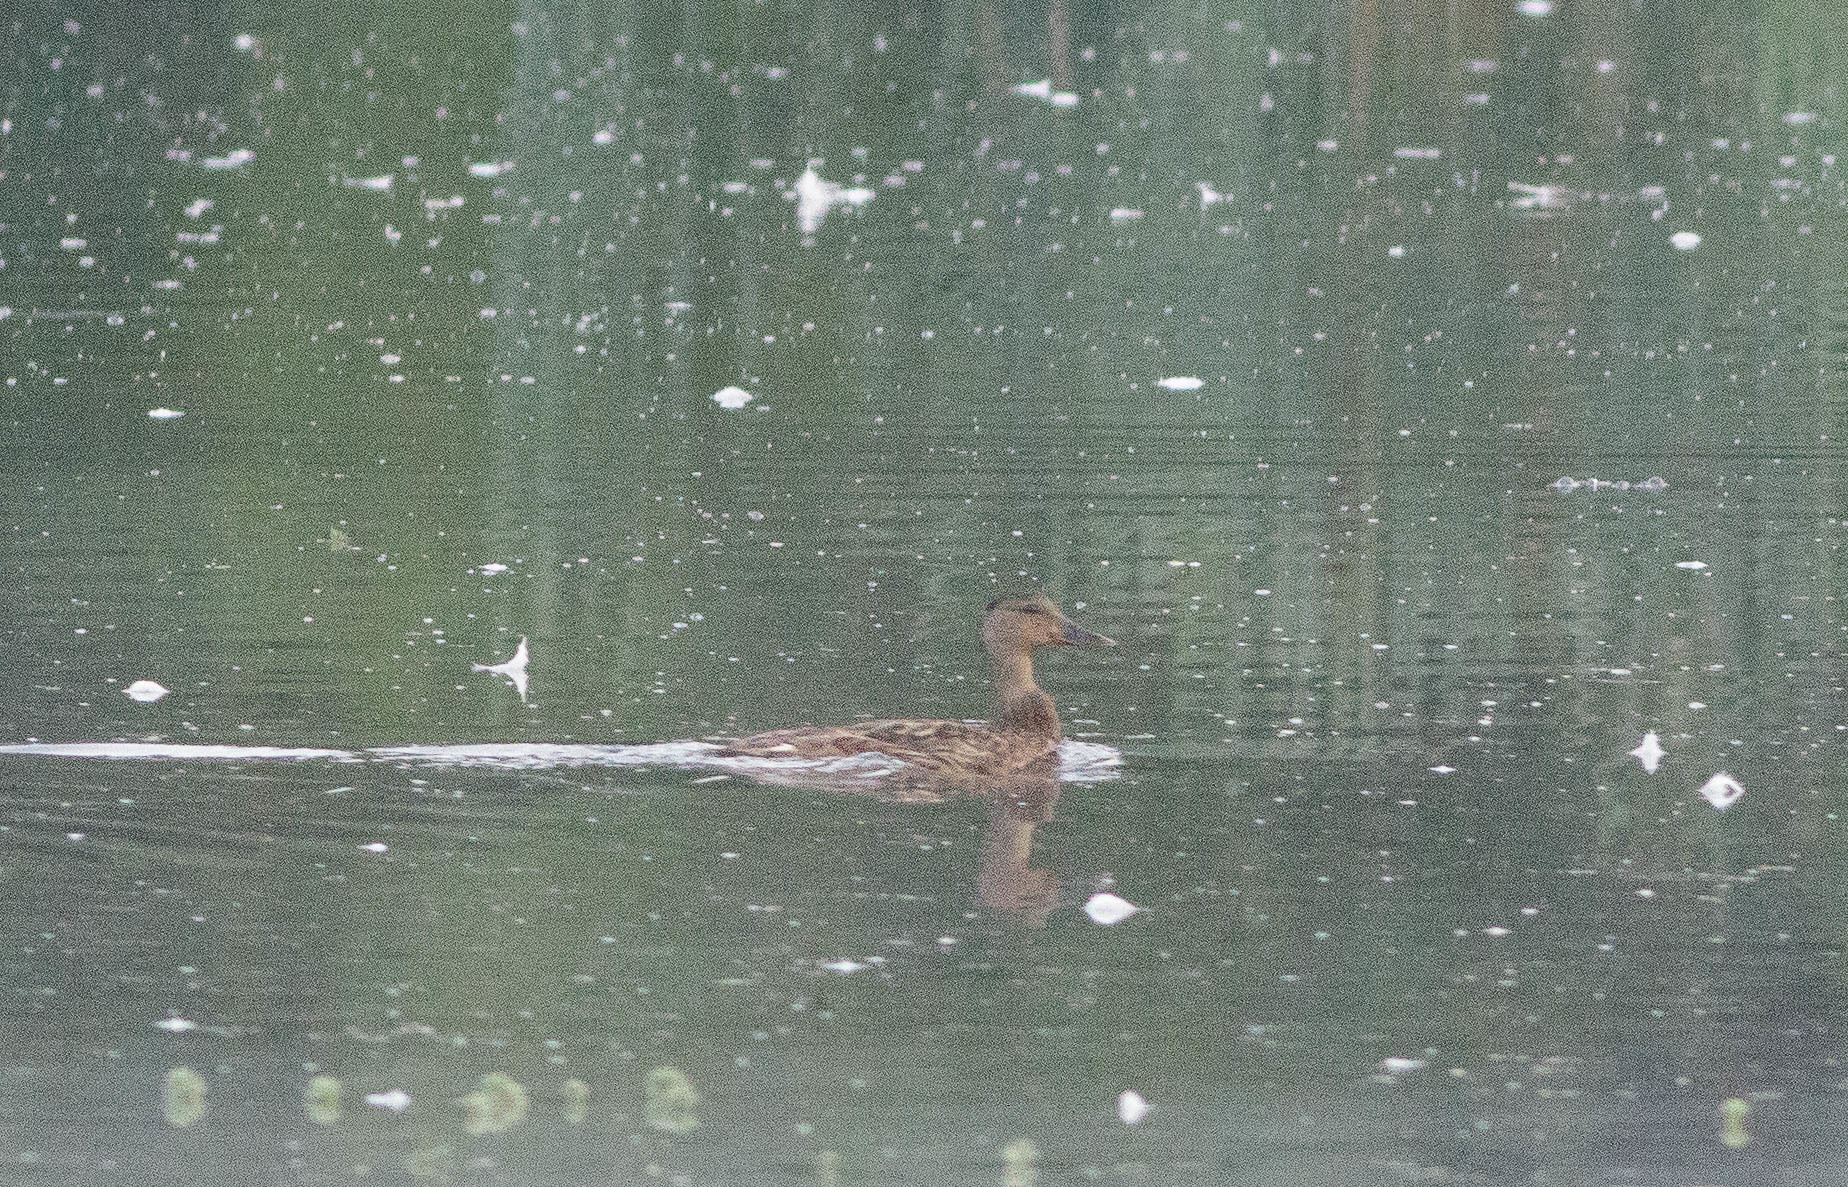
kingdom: Animalia
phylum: Chordata
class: Aves
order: Anseriformes
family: Anatidae
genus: Anas
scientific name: Anas platyrhynchos
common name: Mallard
